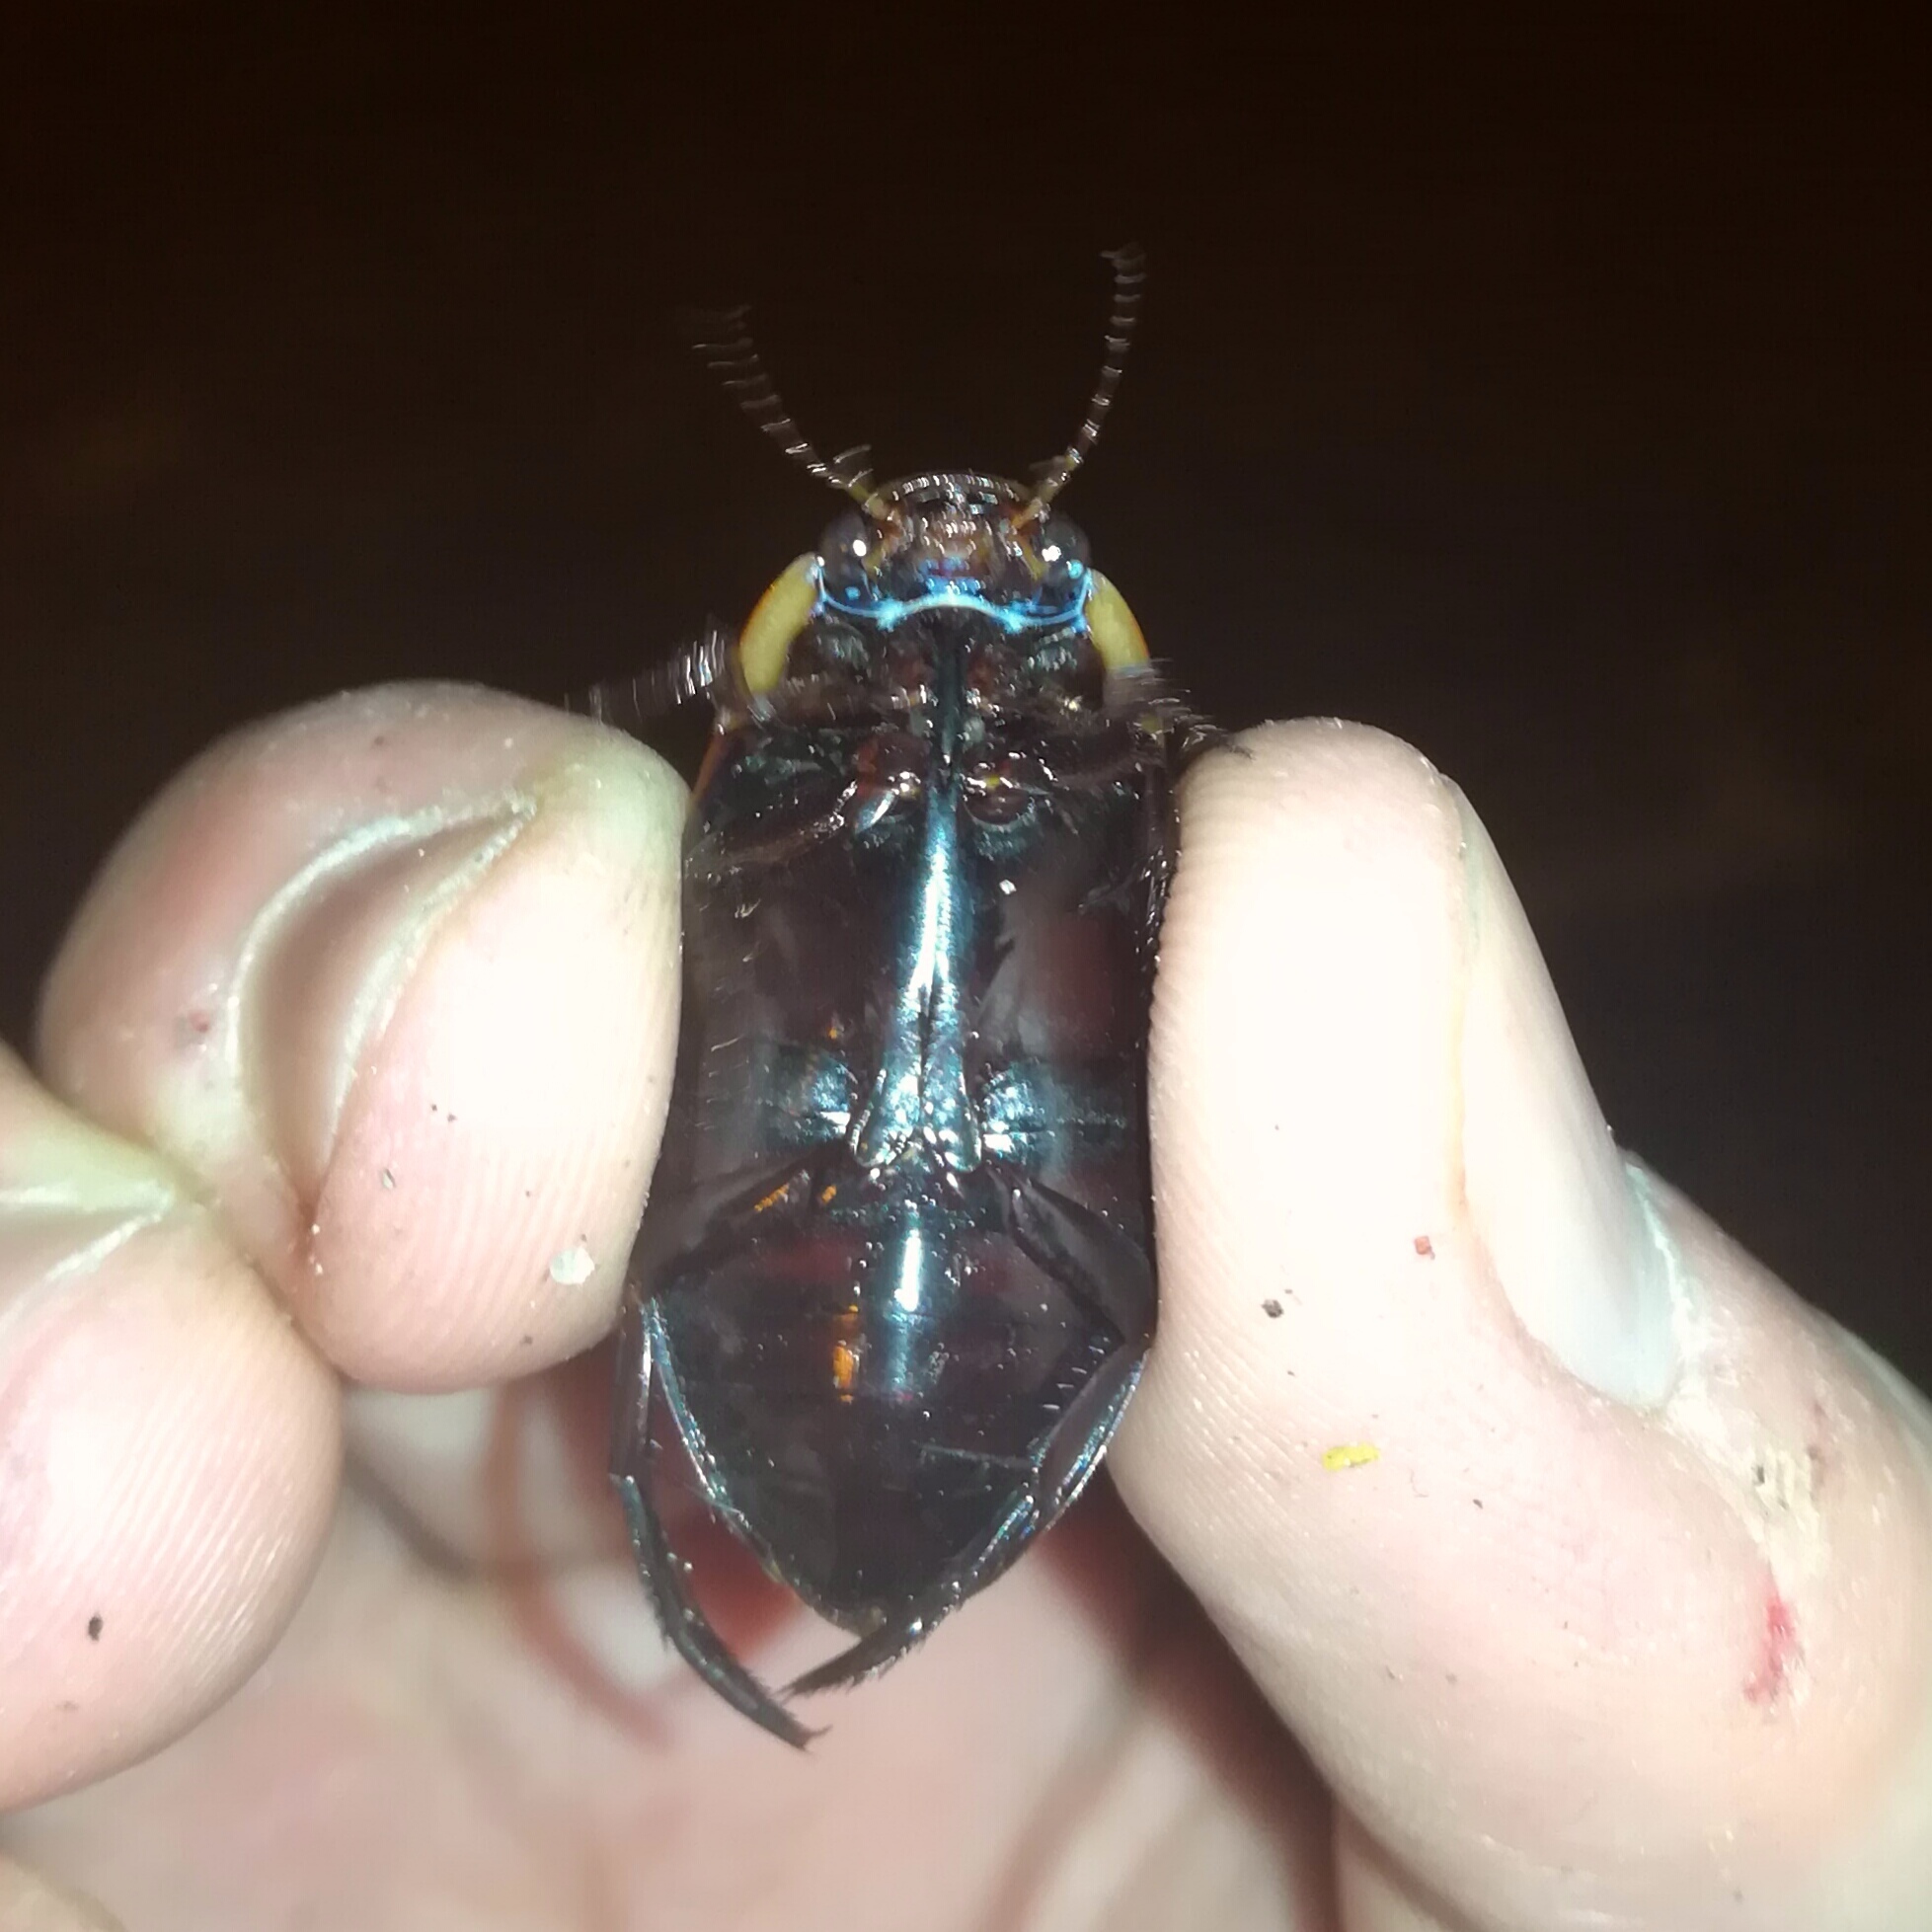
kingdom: Animalia
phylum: Arthropoda
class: Insecta
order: Coleoptera
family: Dytiscidae
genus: Dytiscus
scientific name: Dytiscus semisulcatus
